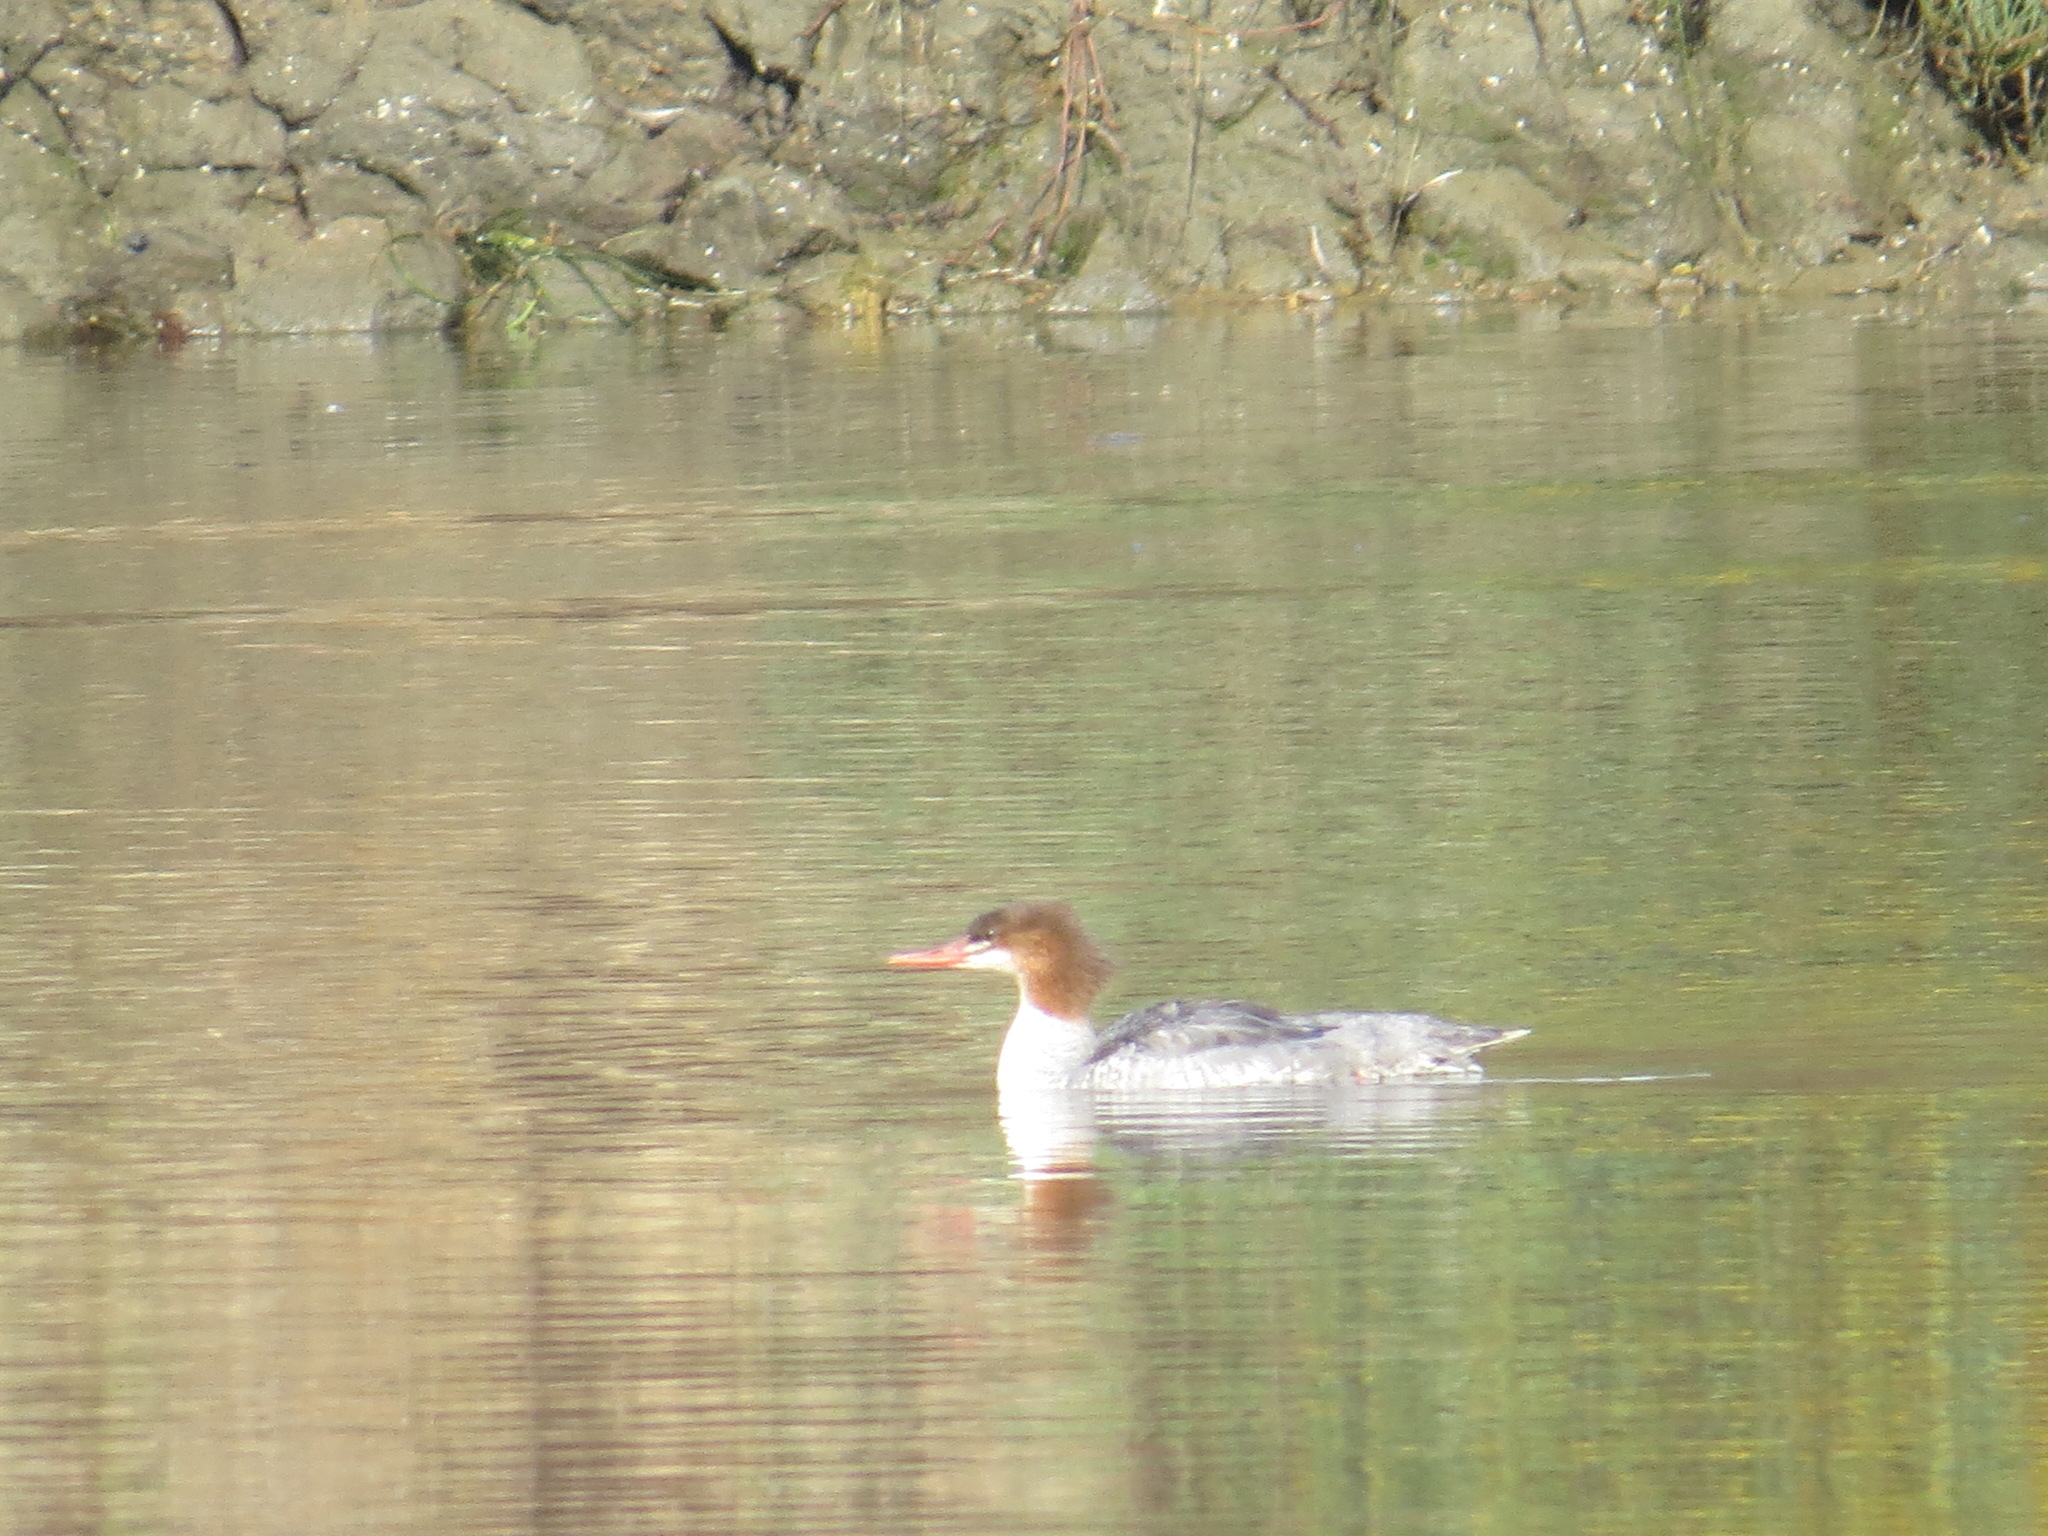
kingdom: Animalia
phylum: Chordata
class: Aves
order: Anseriformes
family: Anatidae
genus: Mergus
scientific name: Mergus merganser
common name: Common merganser
